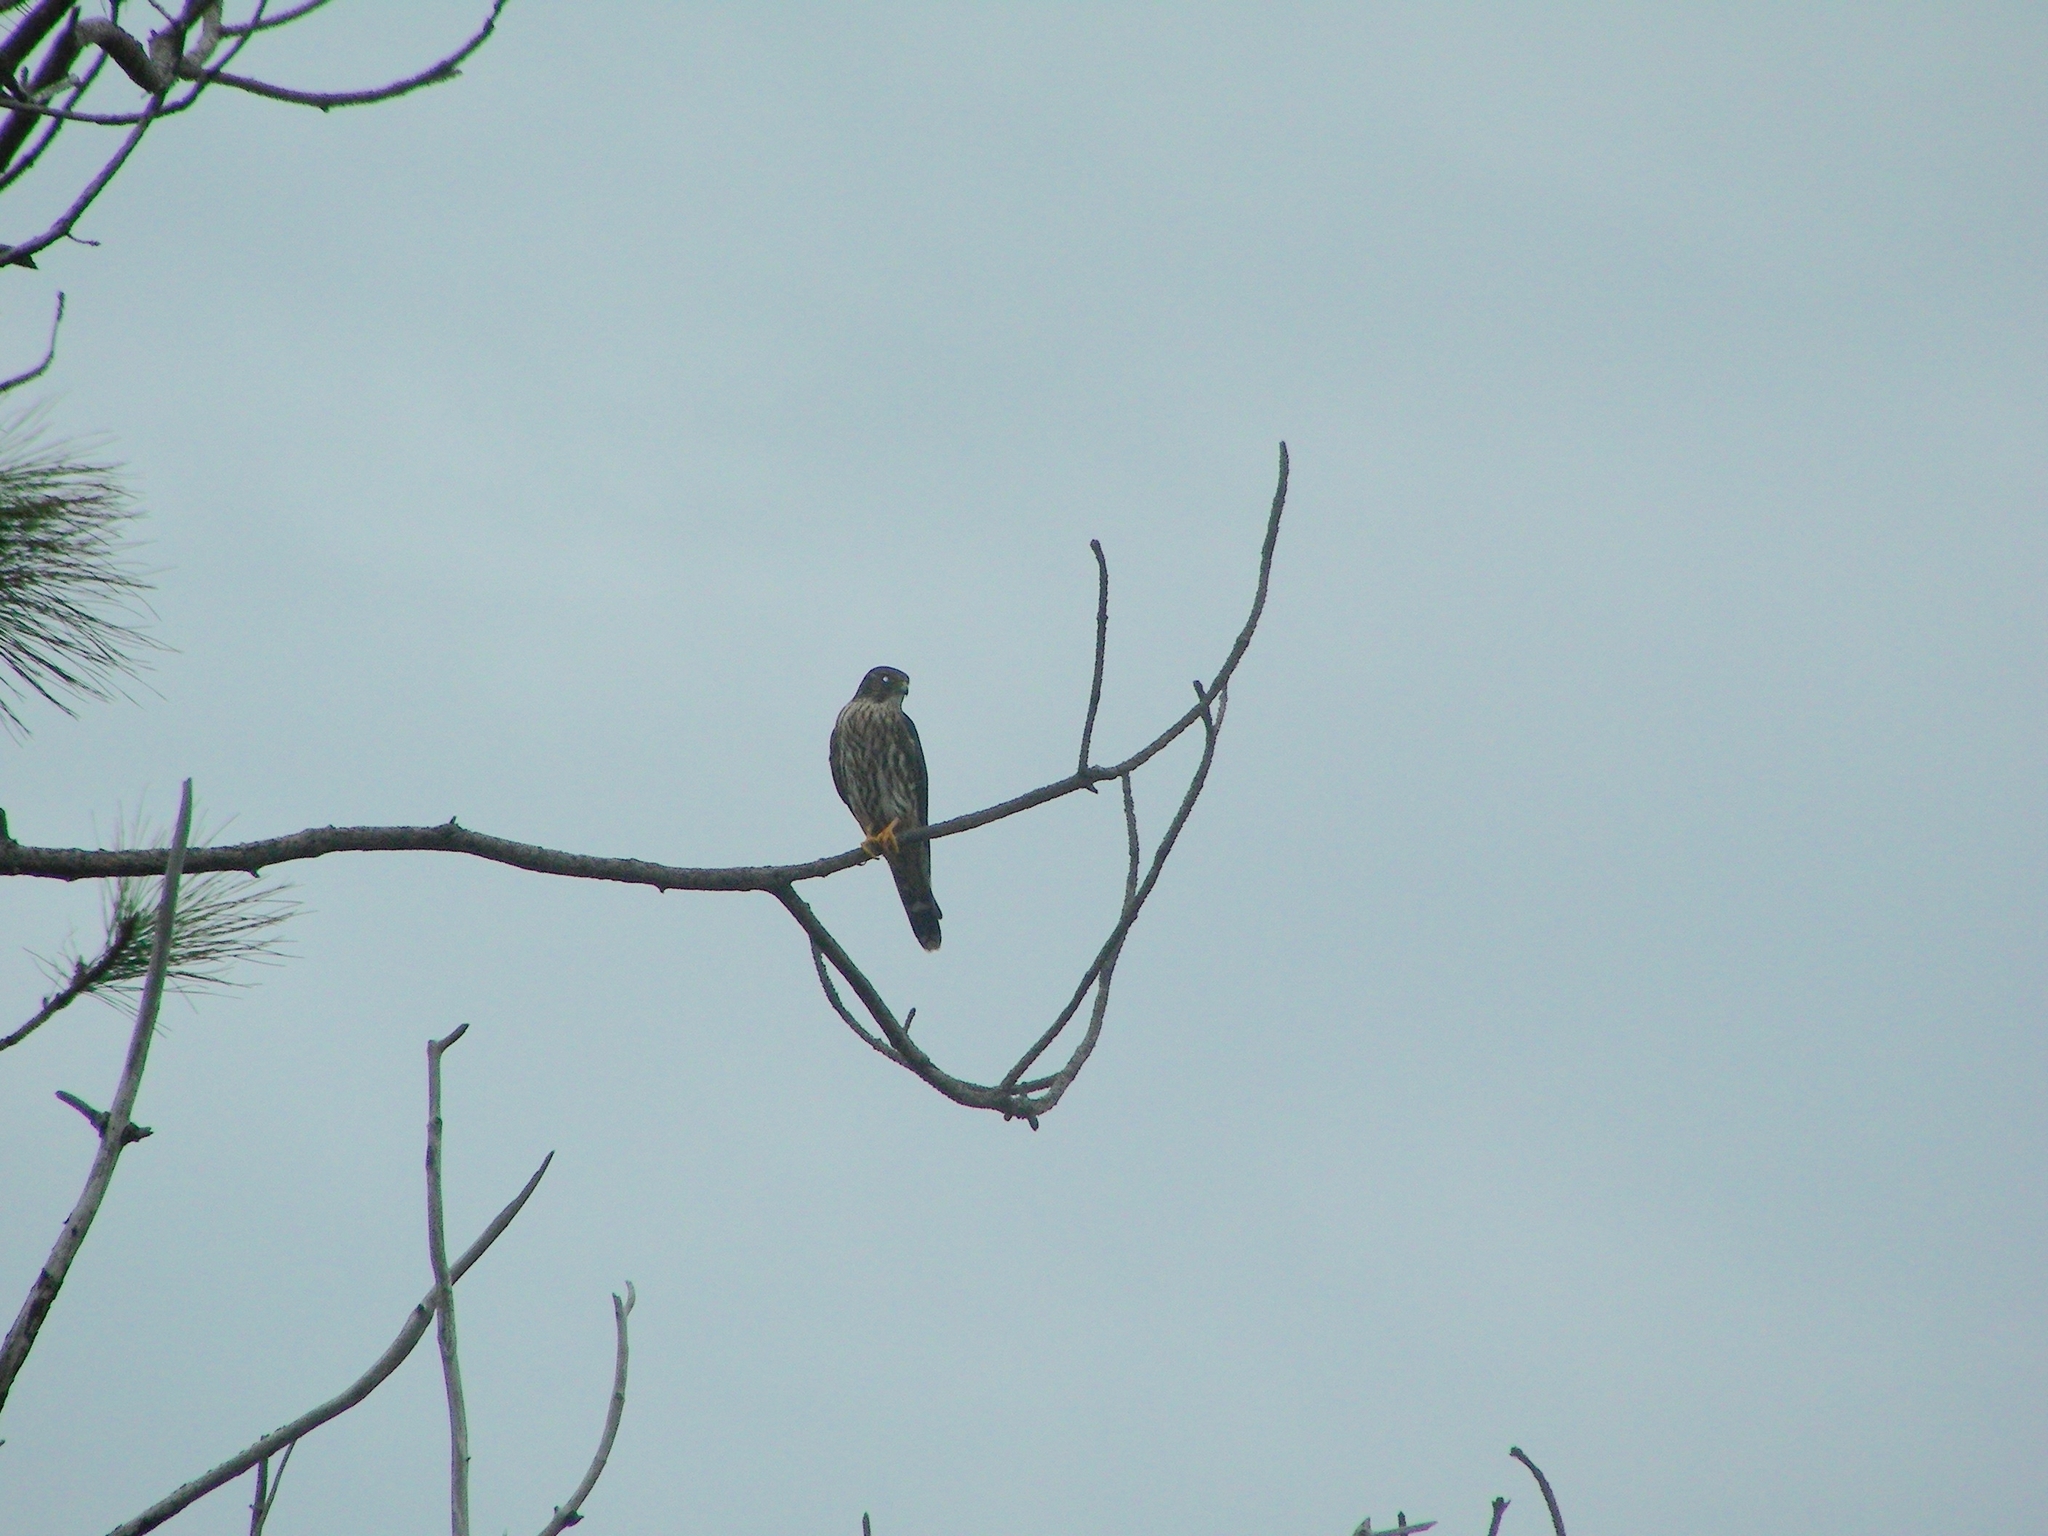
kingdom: Animalia
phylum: Chordata
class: Aves
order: Falconiformes
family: Falconidae
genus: Falco
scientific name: Falco columbarius
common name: Merlin
